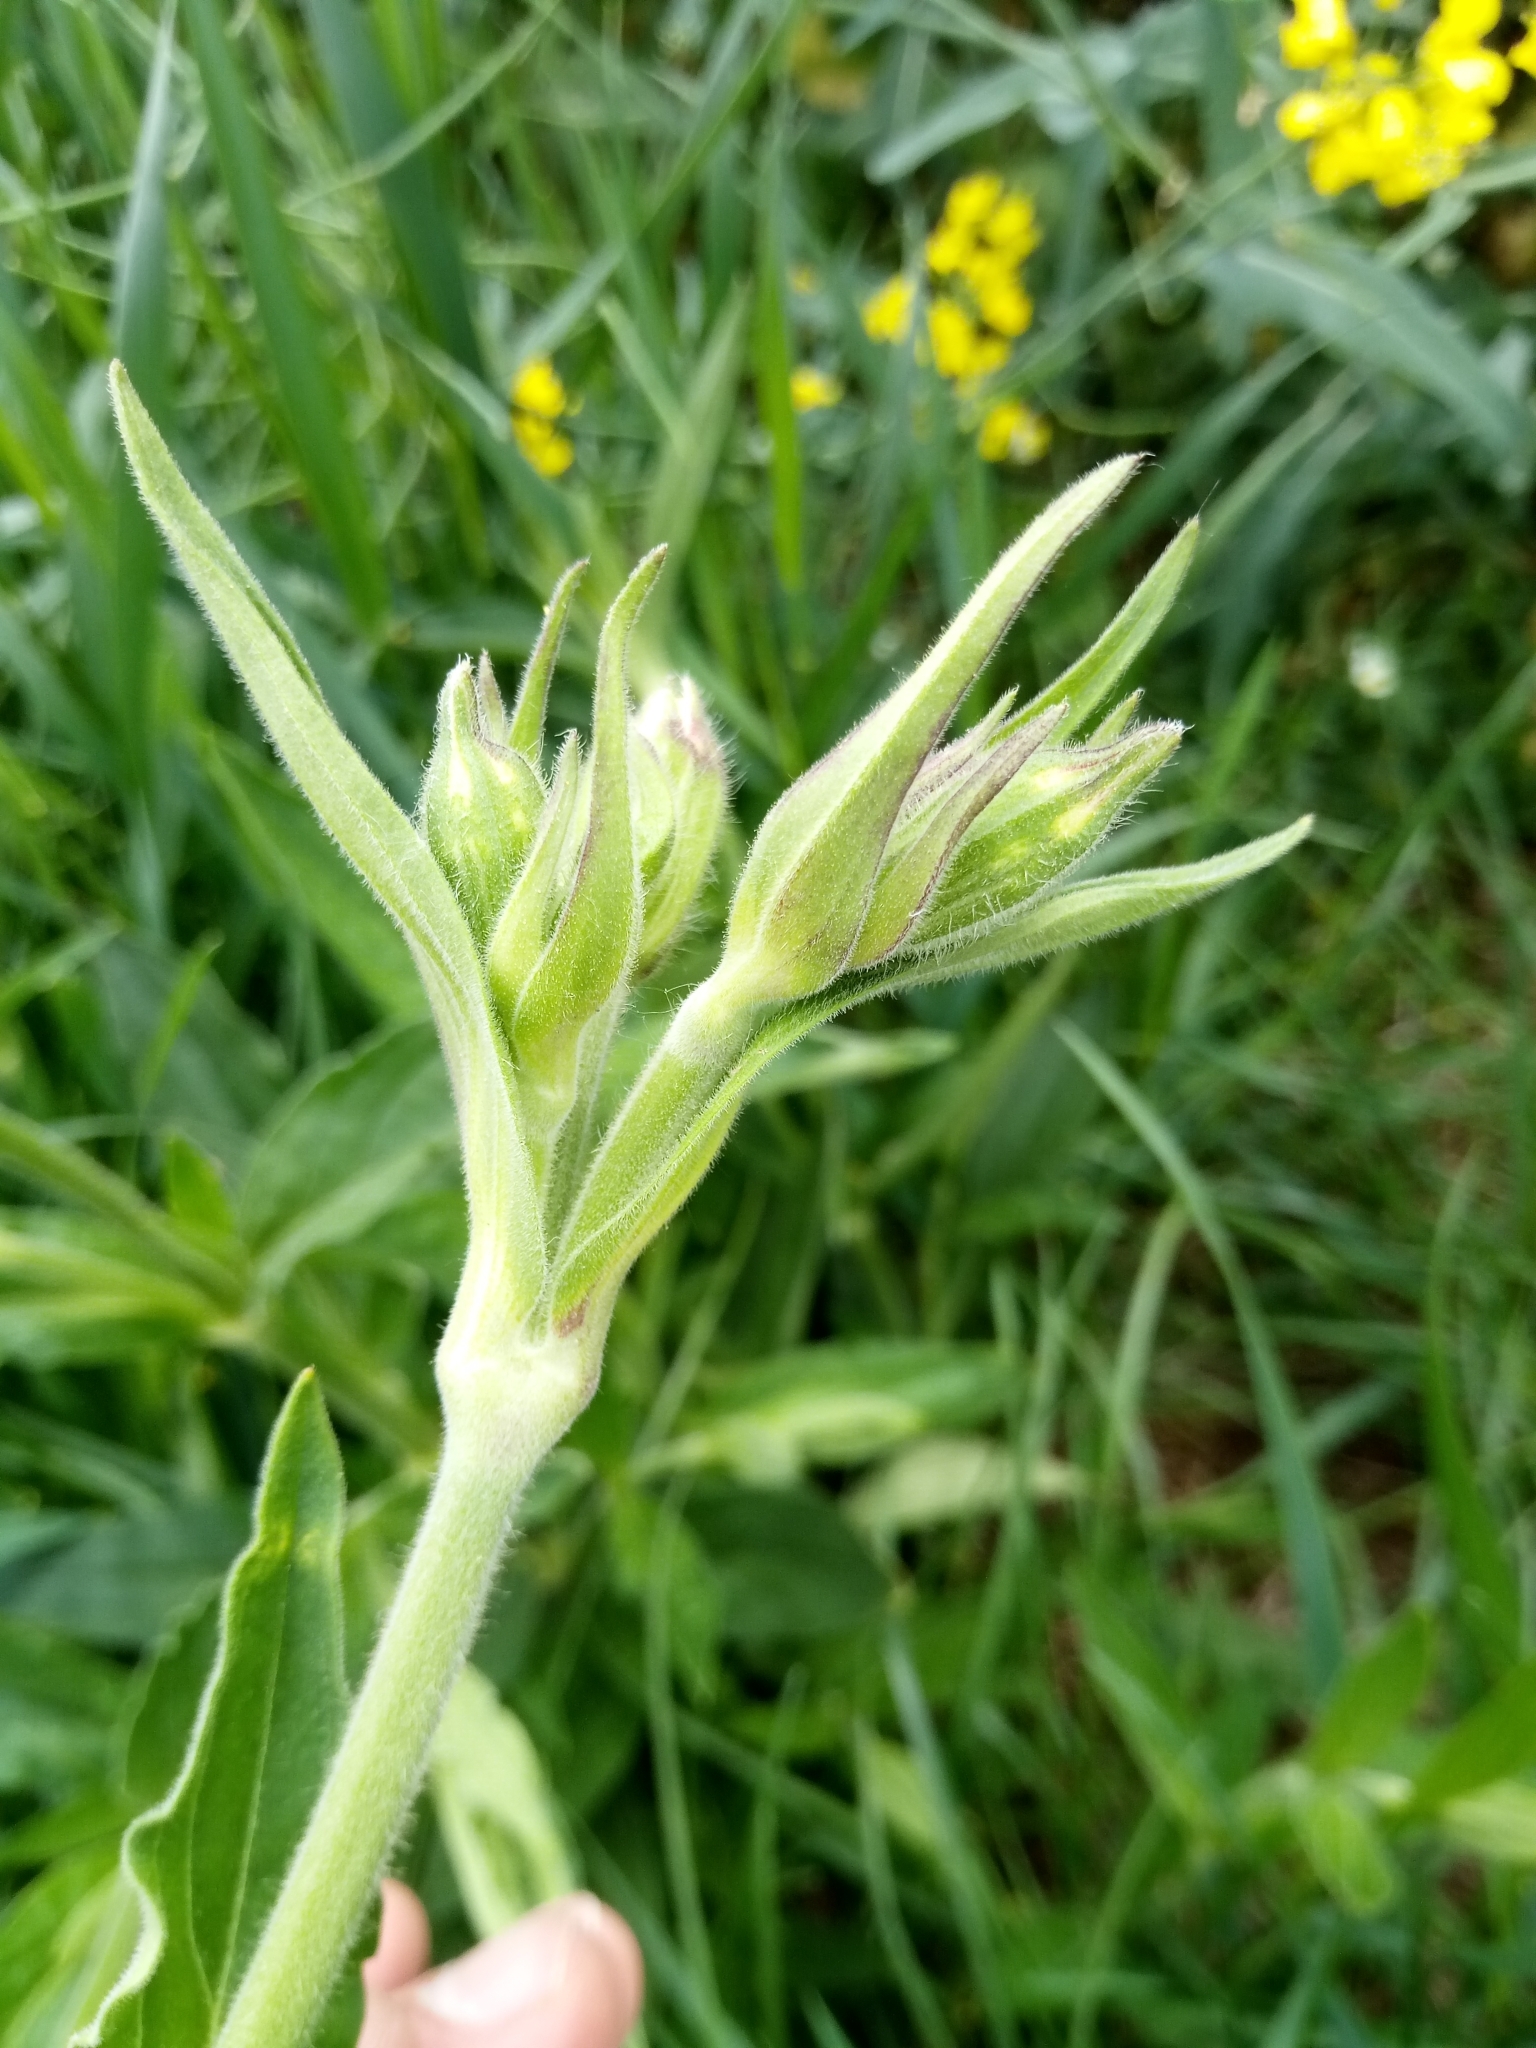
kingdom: Plantae
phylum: Tracheophyta
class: Magnoliopsida
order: Caryophyllales
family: Caryophyllaceae
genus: Silene
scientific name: Silene latifolia
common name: White campion
